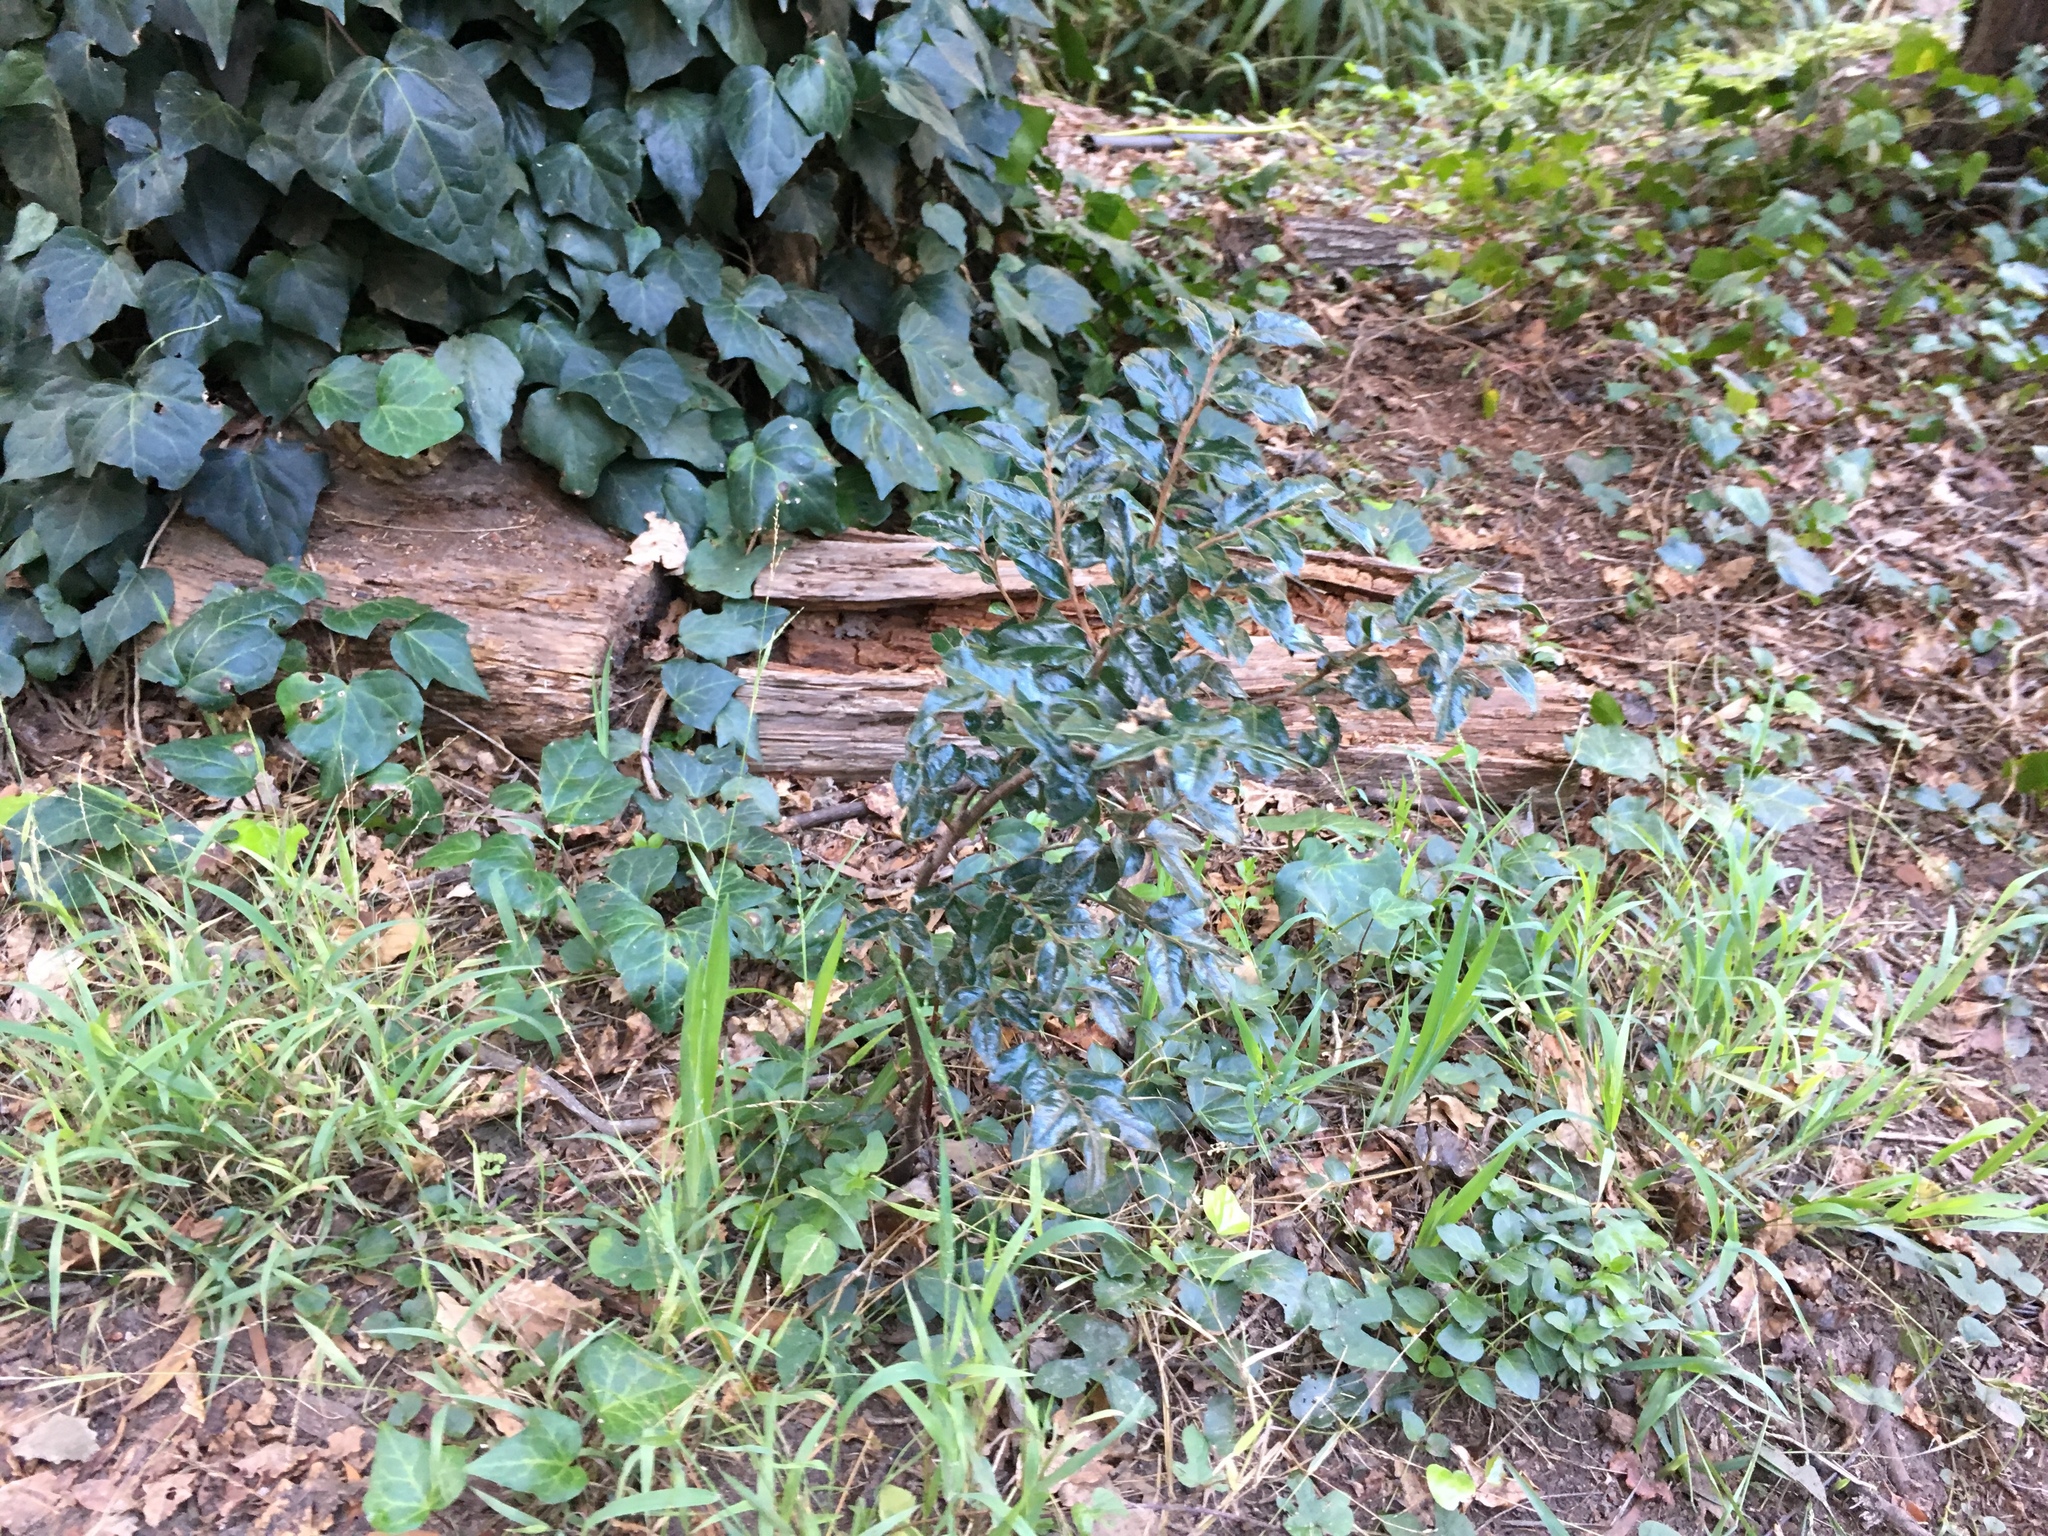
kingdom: Plantae
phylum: Tracheophyta
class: Magnoliopsida
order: Ericales
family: Ebenaceae
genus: Diospyros
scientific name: Diospyros whyteana
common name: Bladder-nut
